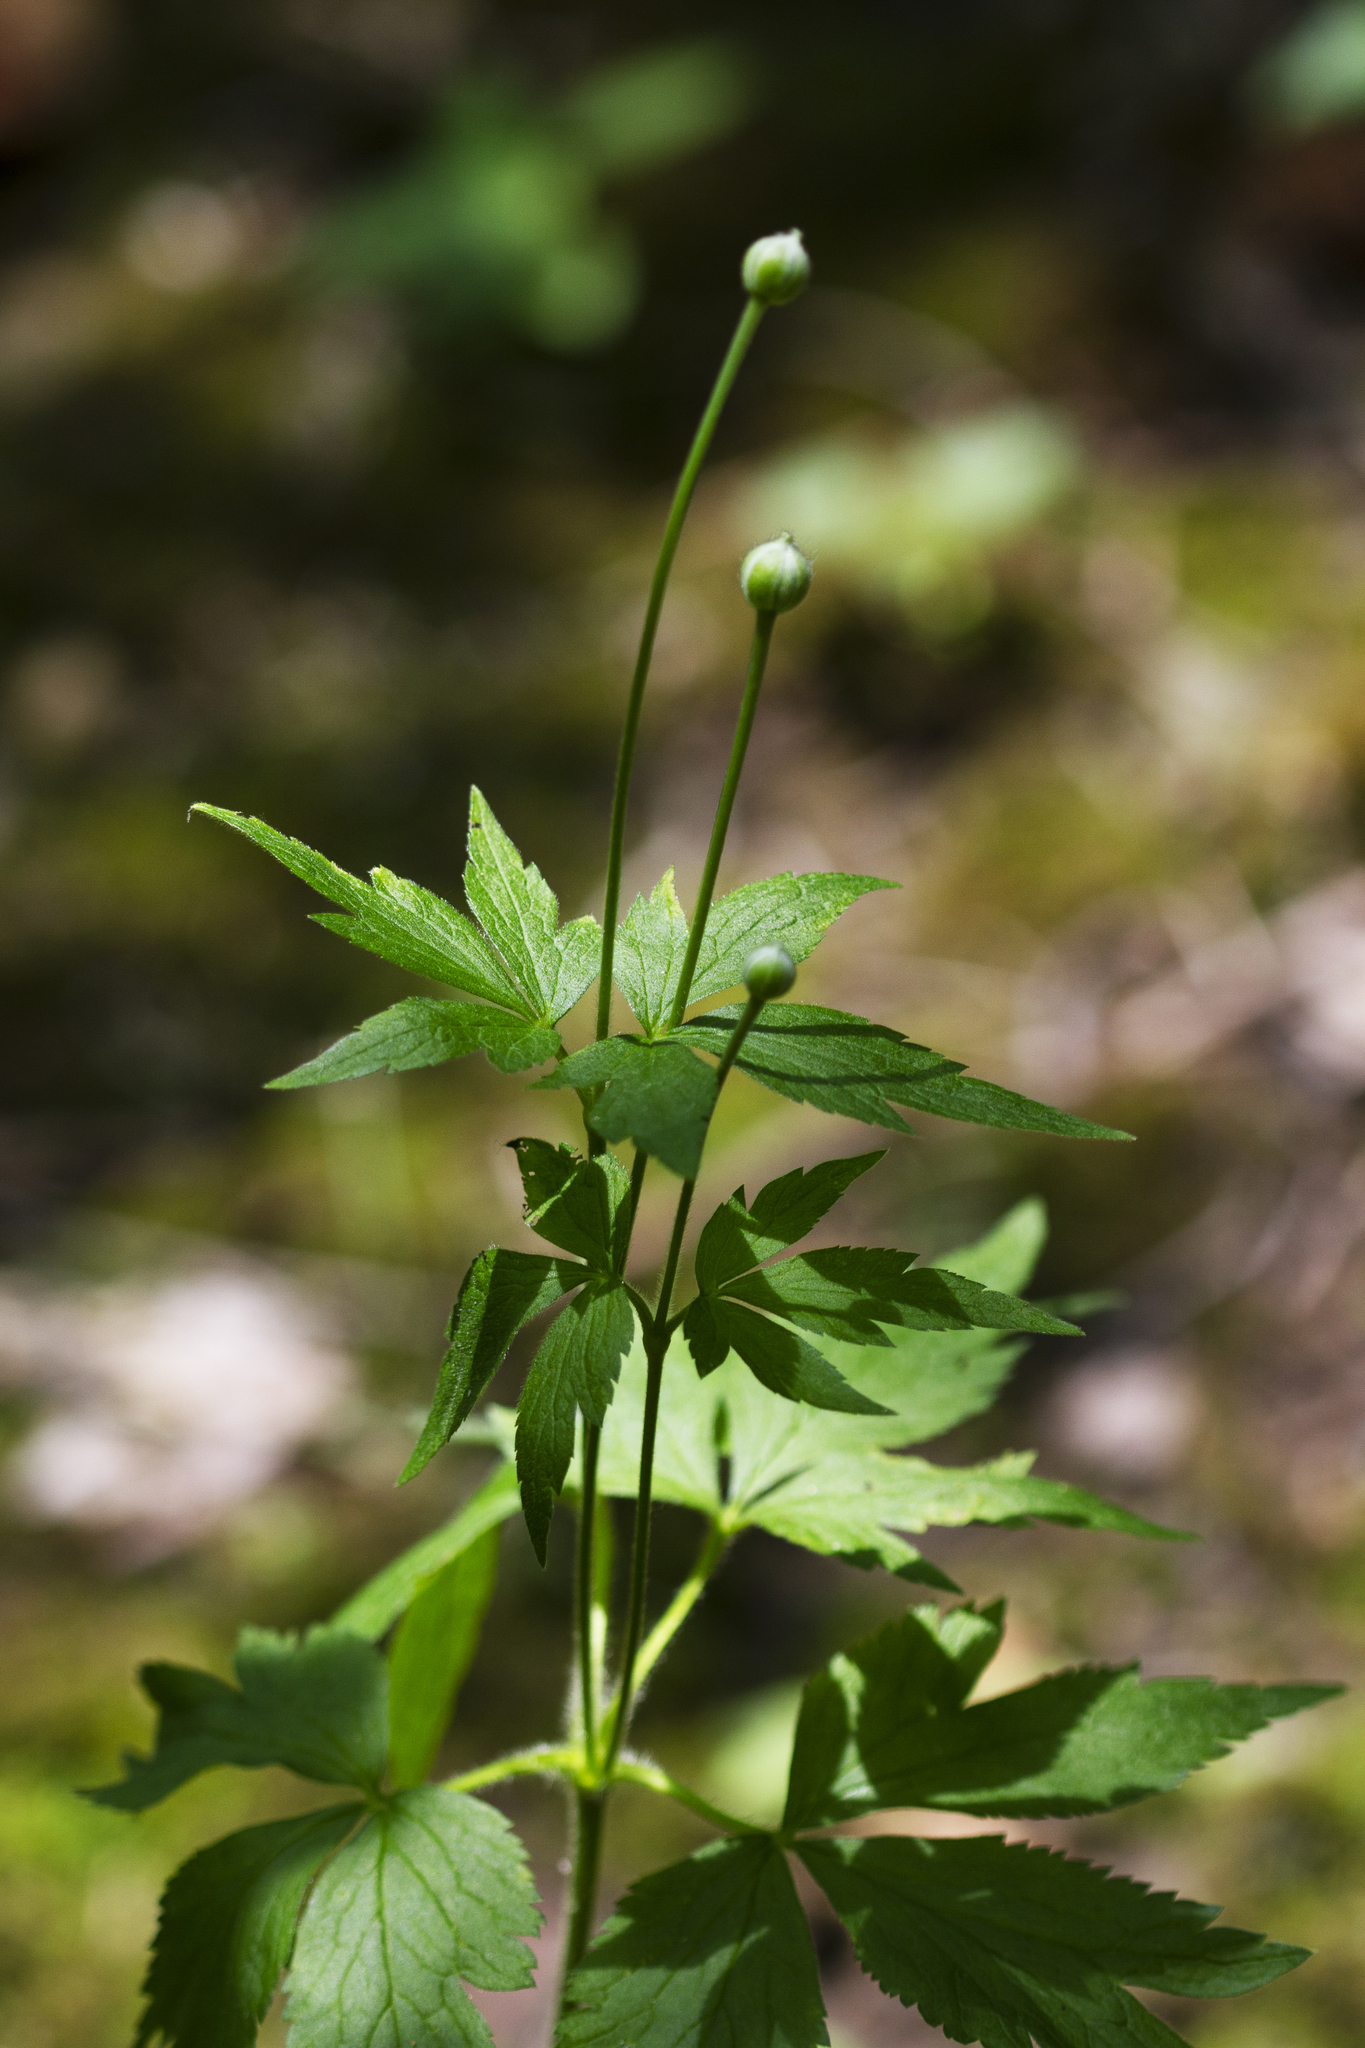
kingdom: Plantae
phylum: Tracheophyta
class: Magnoliopsida
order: Ranunculales
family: Ranunculaceae
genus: Anemone
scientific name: Anemone virginiana
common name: Tall anemone
